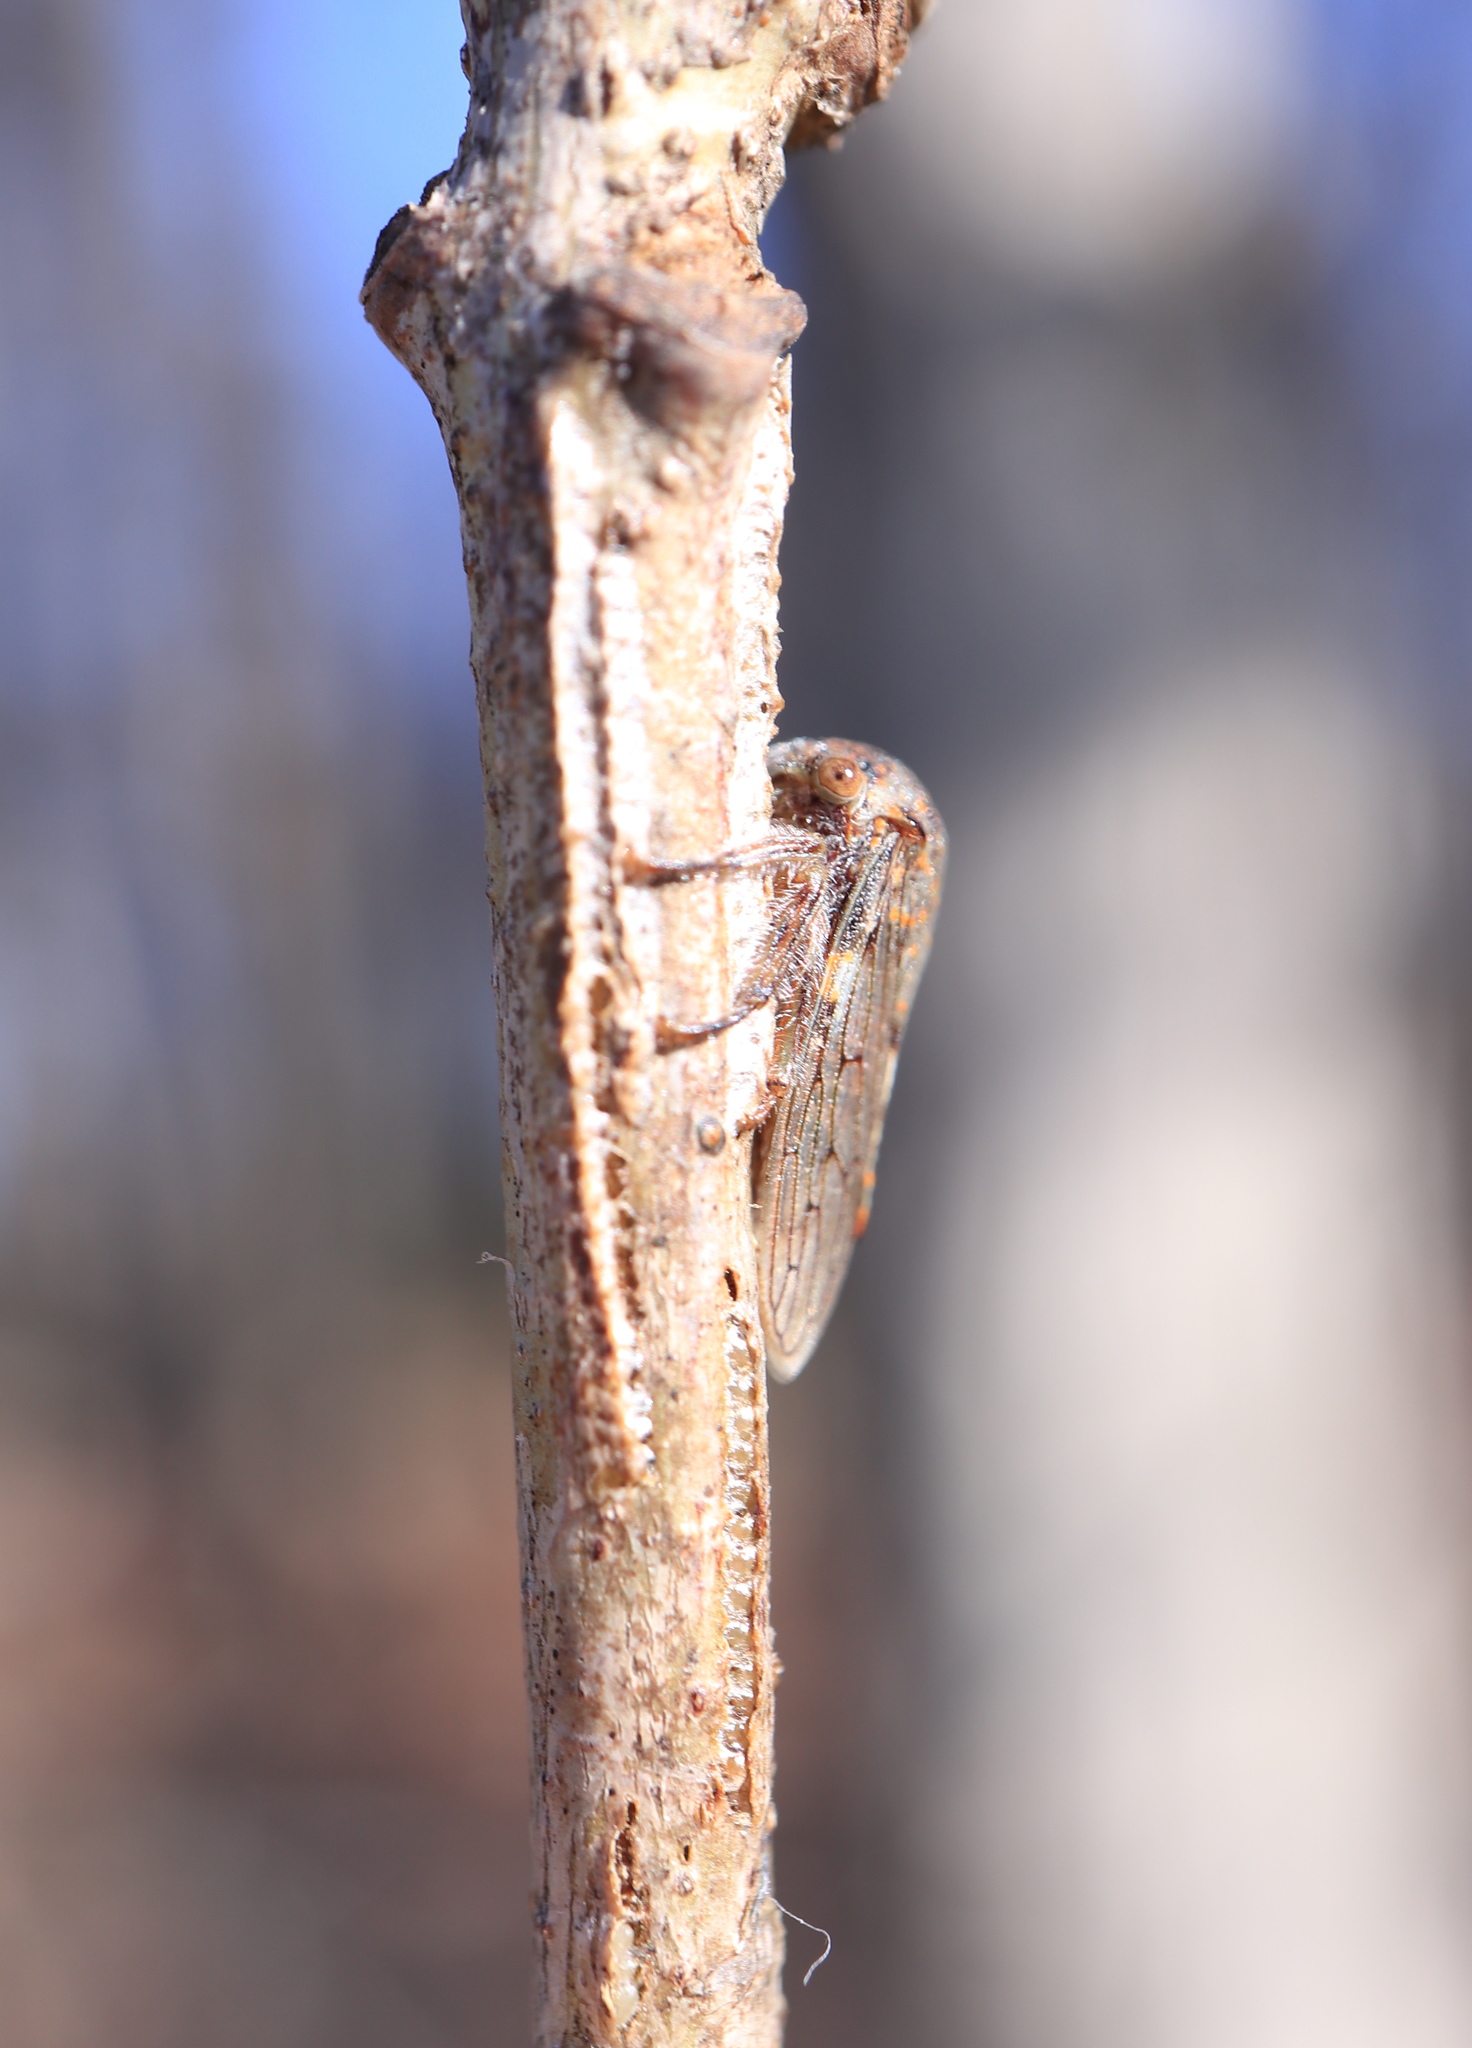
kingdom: Animalia
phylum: Arthropoda
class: Insecta
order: Hemiptera
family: Membracidae
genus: Platycotis
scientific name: Platycotis vittatus
